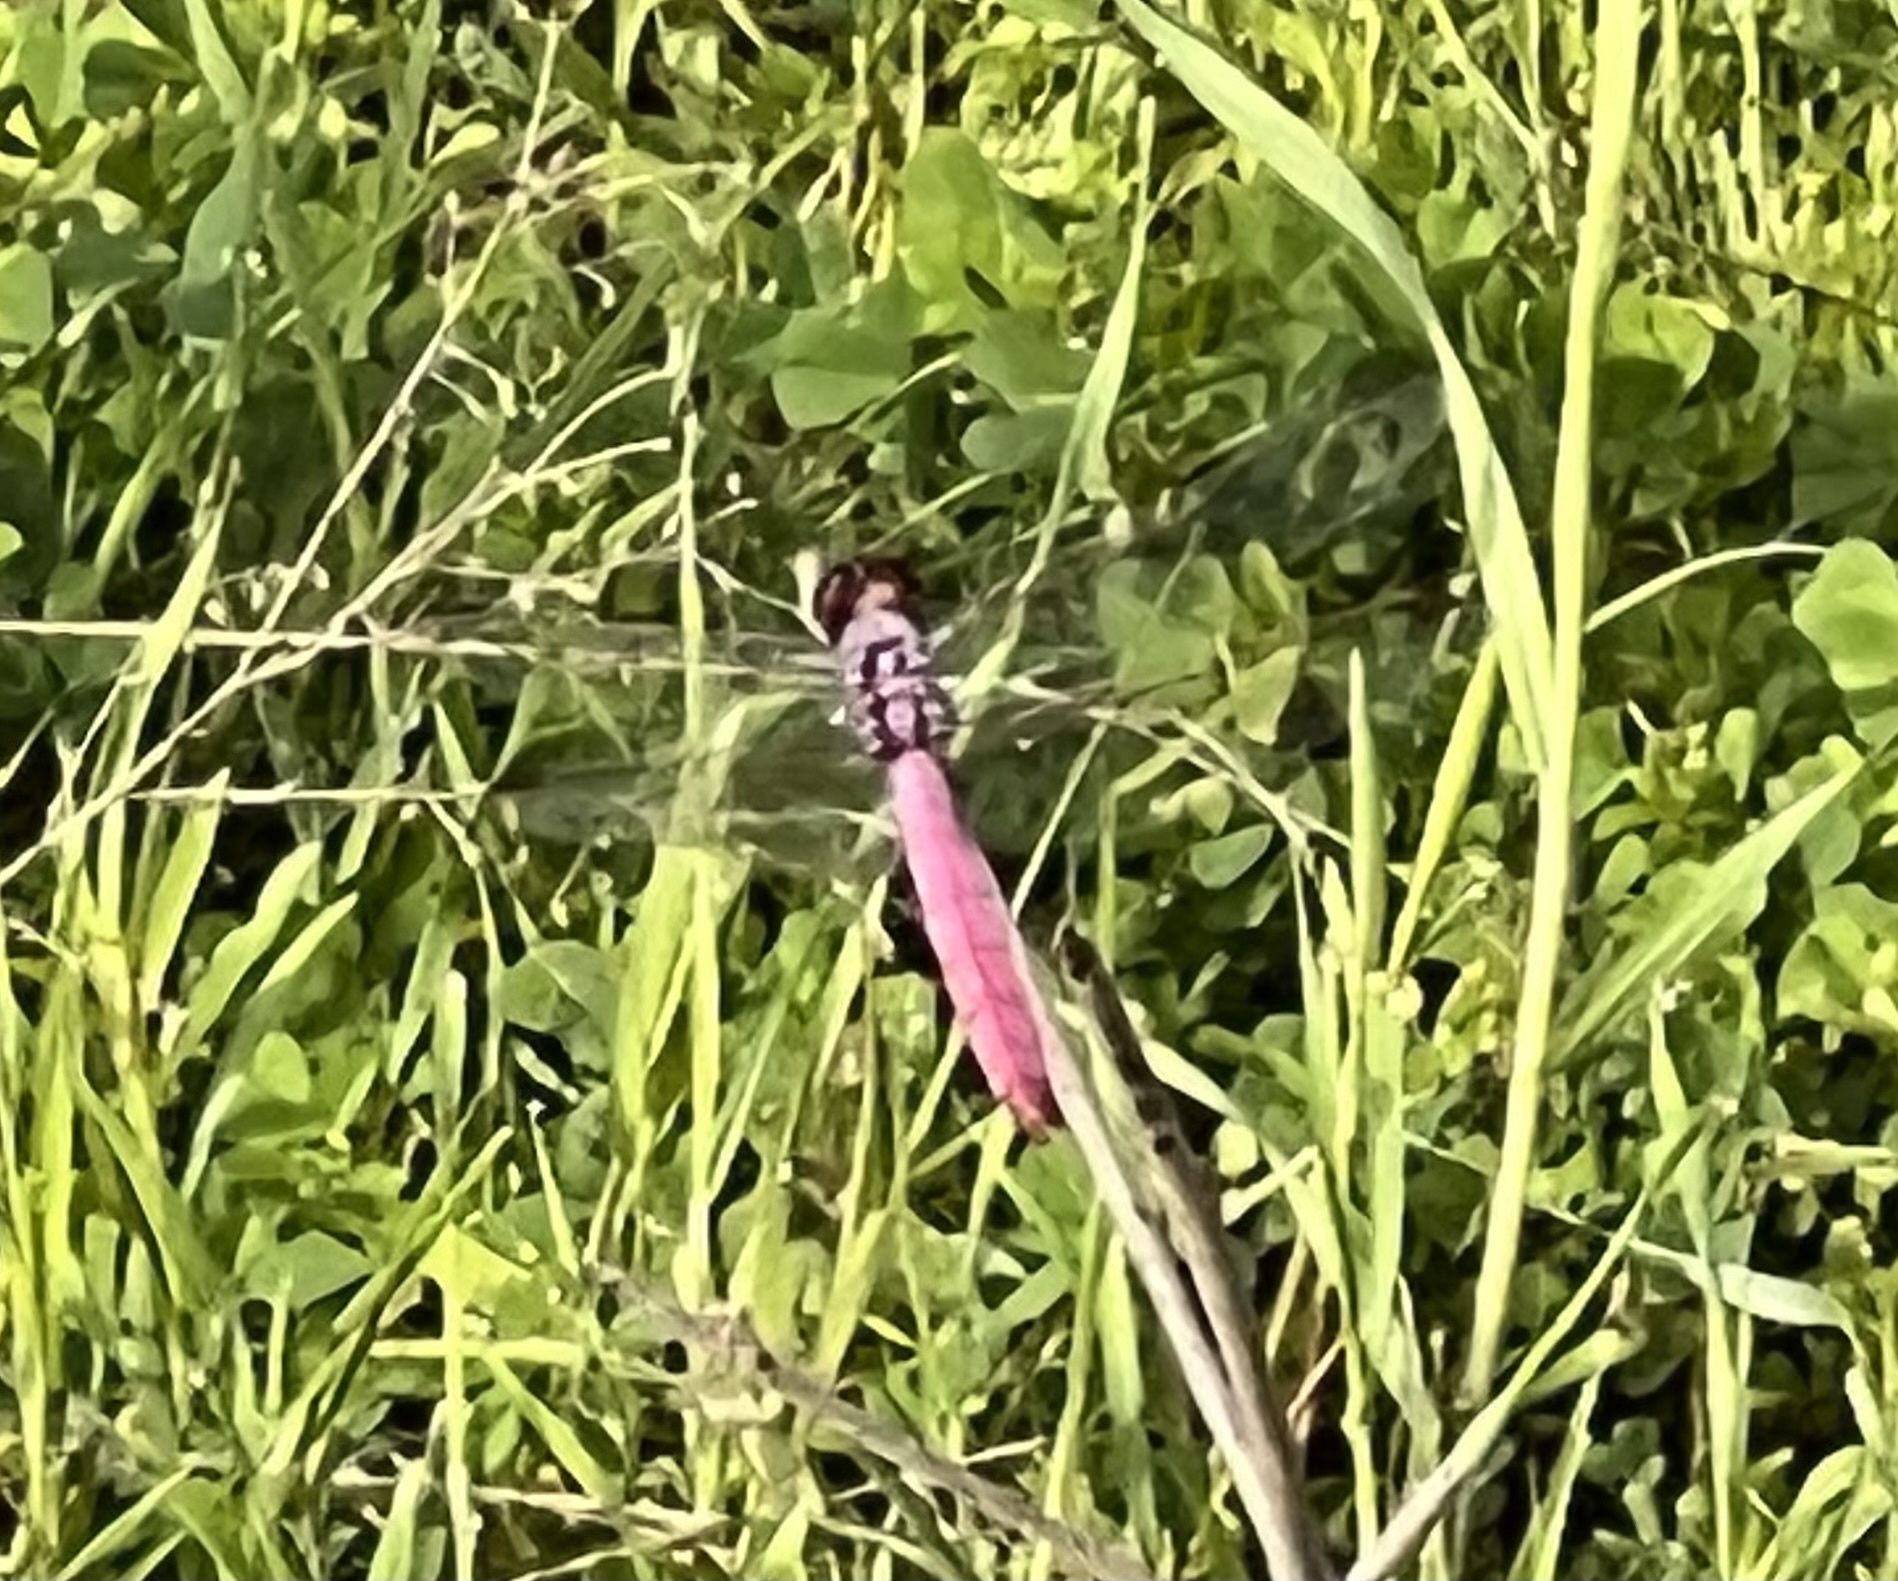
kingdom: Animalia
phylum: Arthropoda
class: Insecta
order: Odonata
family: Libellulidae
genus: Orthemis
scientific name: Orthemis ferruginea
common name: Roseate skimmer
